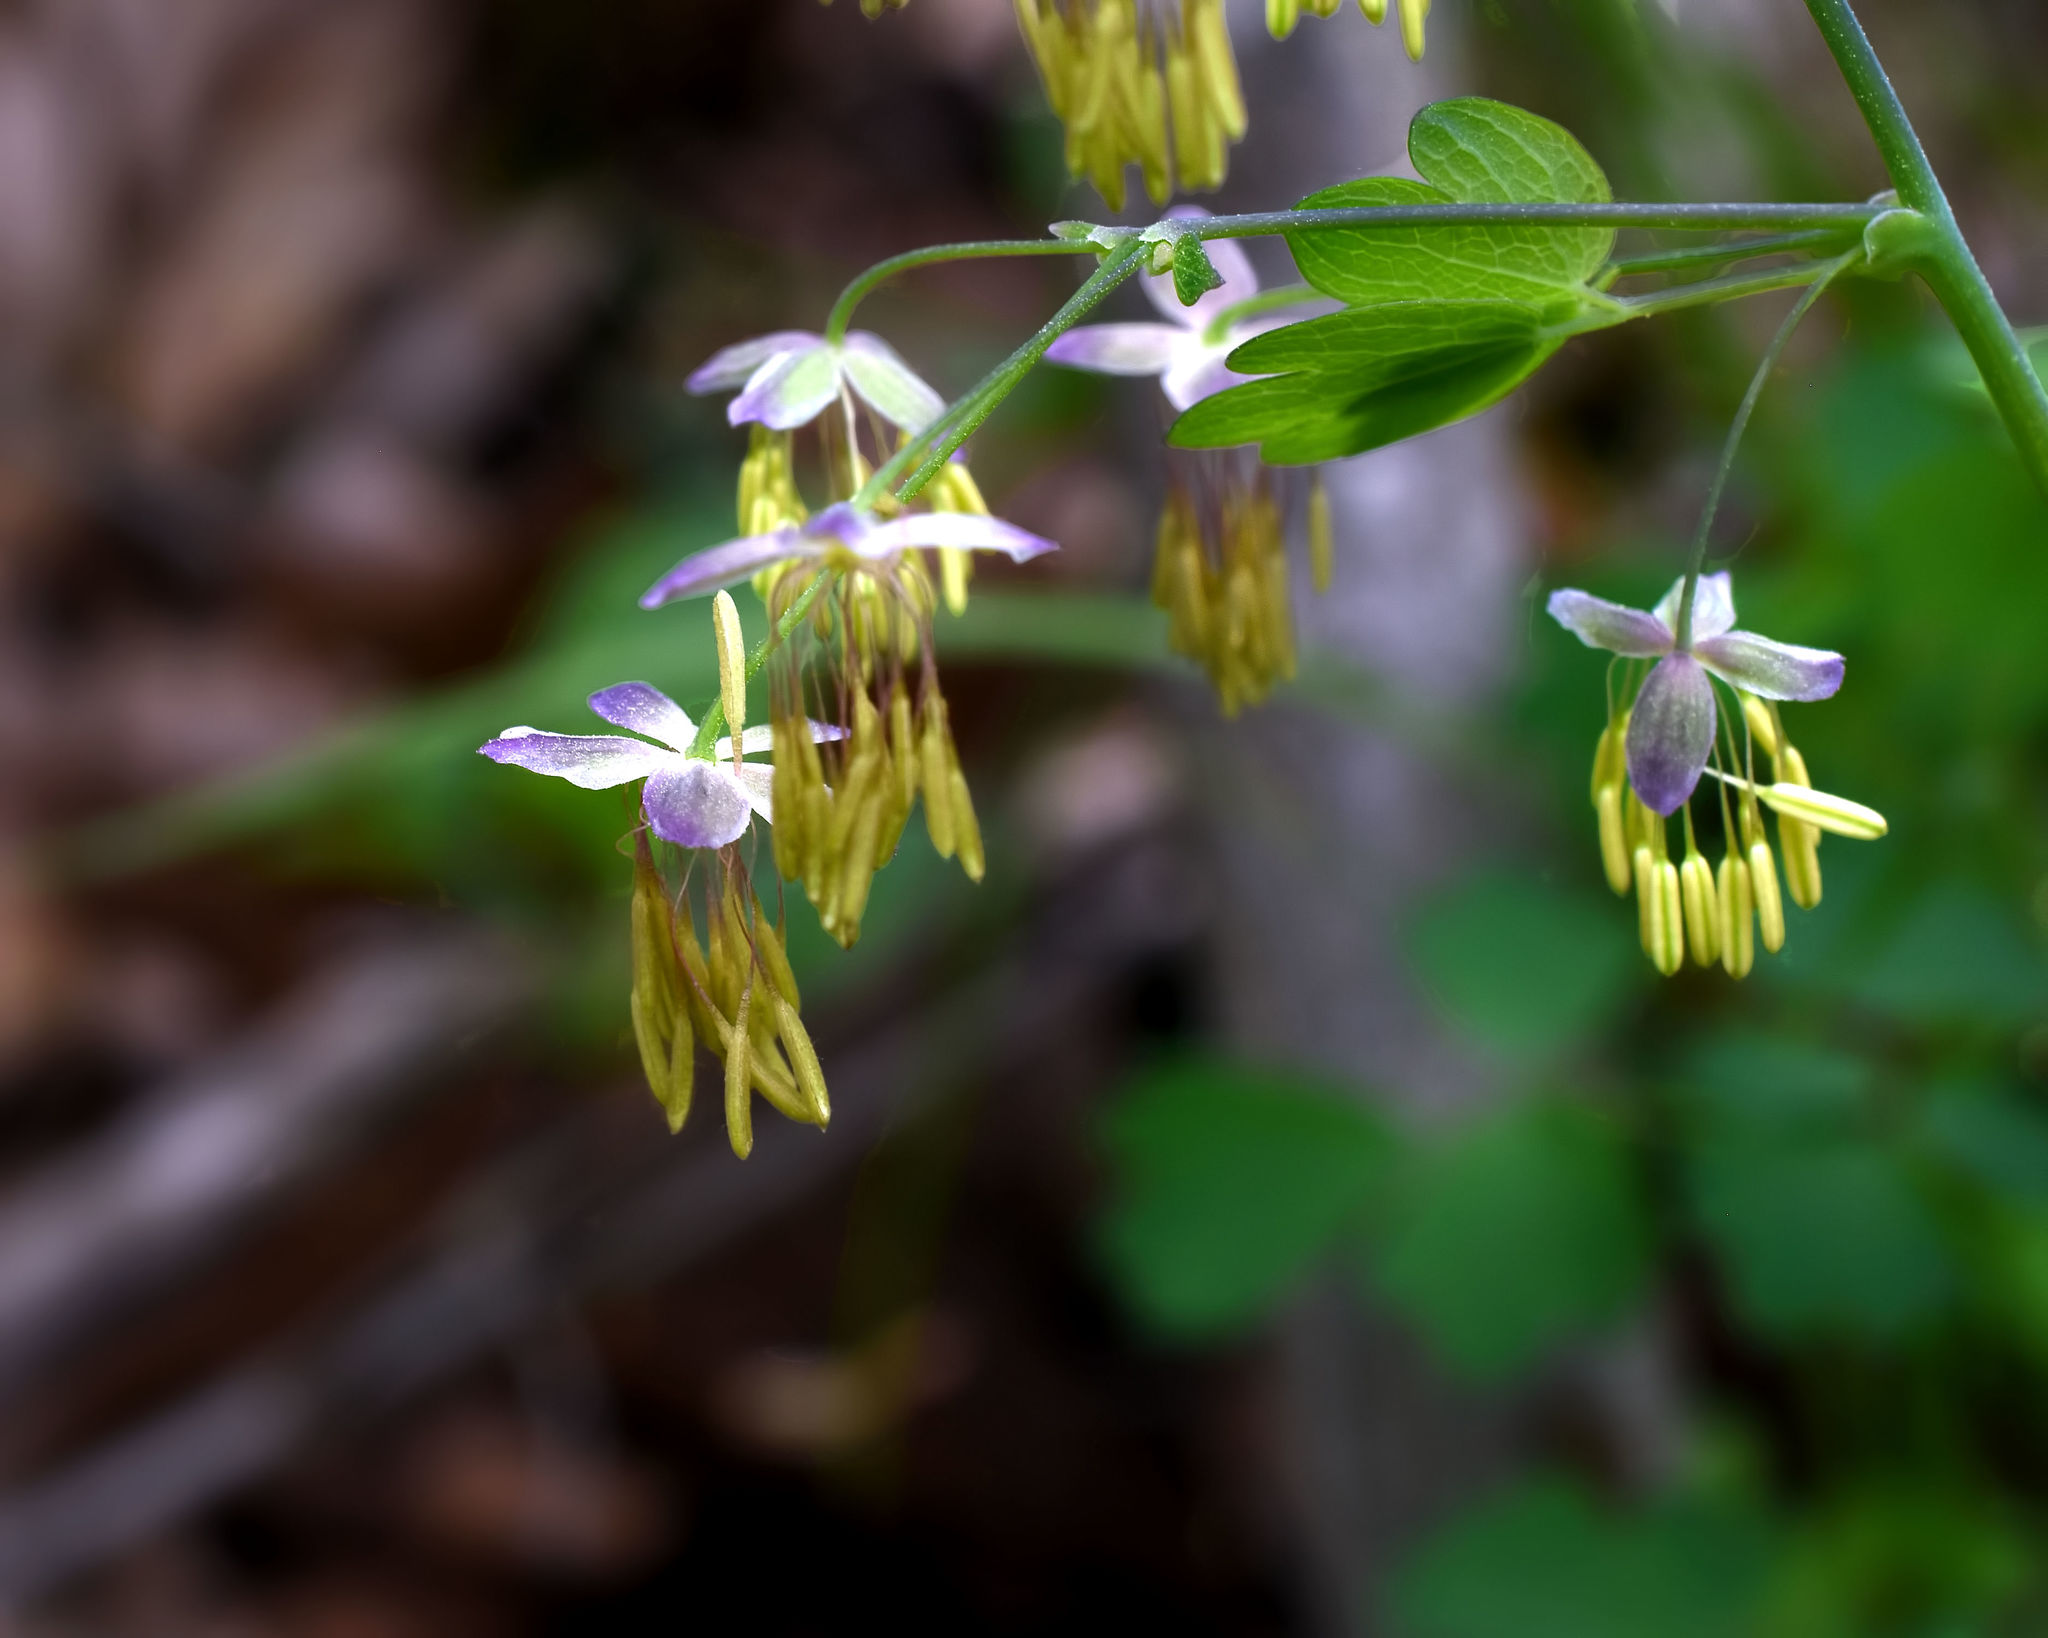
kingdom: Plantae
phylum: Tracheophyta
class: Magnoliopsida
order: Ranunculales
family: Ranunculaceae
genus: Thalictrum
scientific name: Thalictrum dioicum
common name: Early meadow-rue
